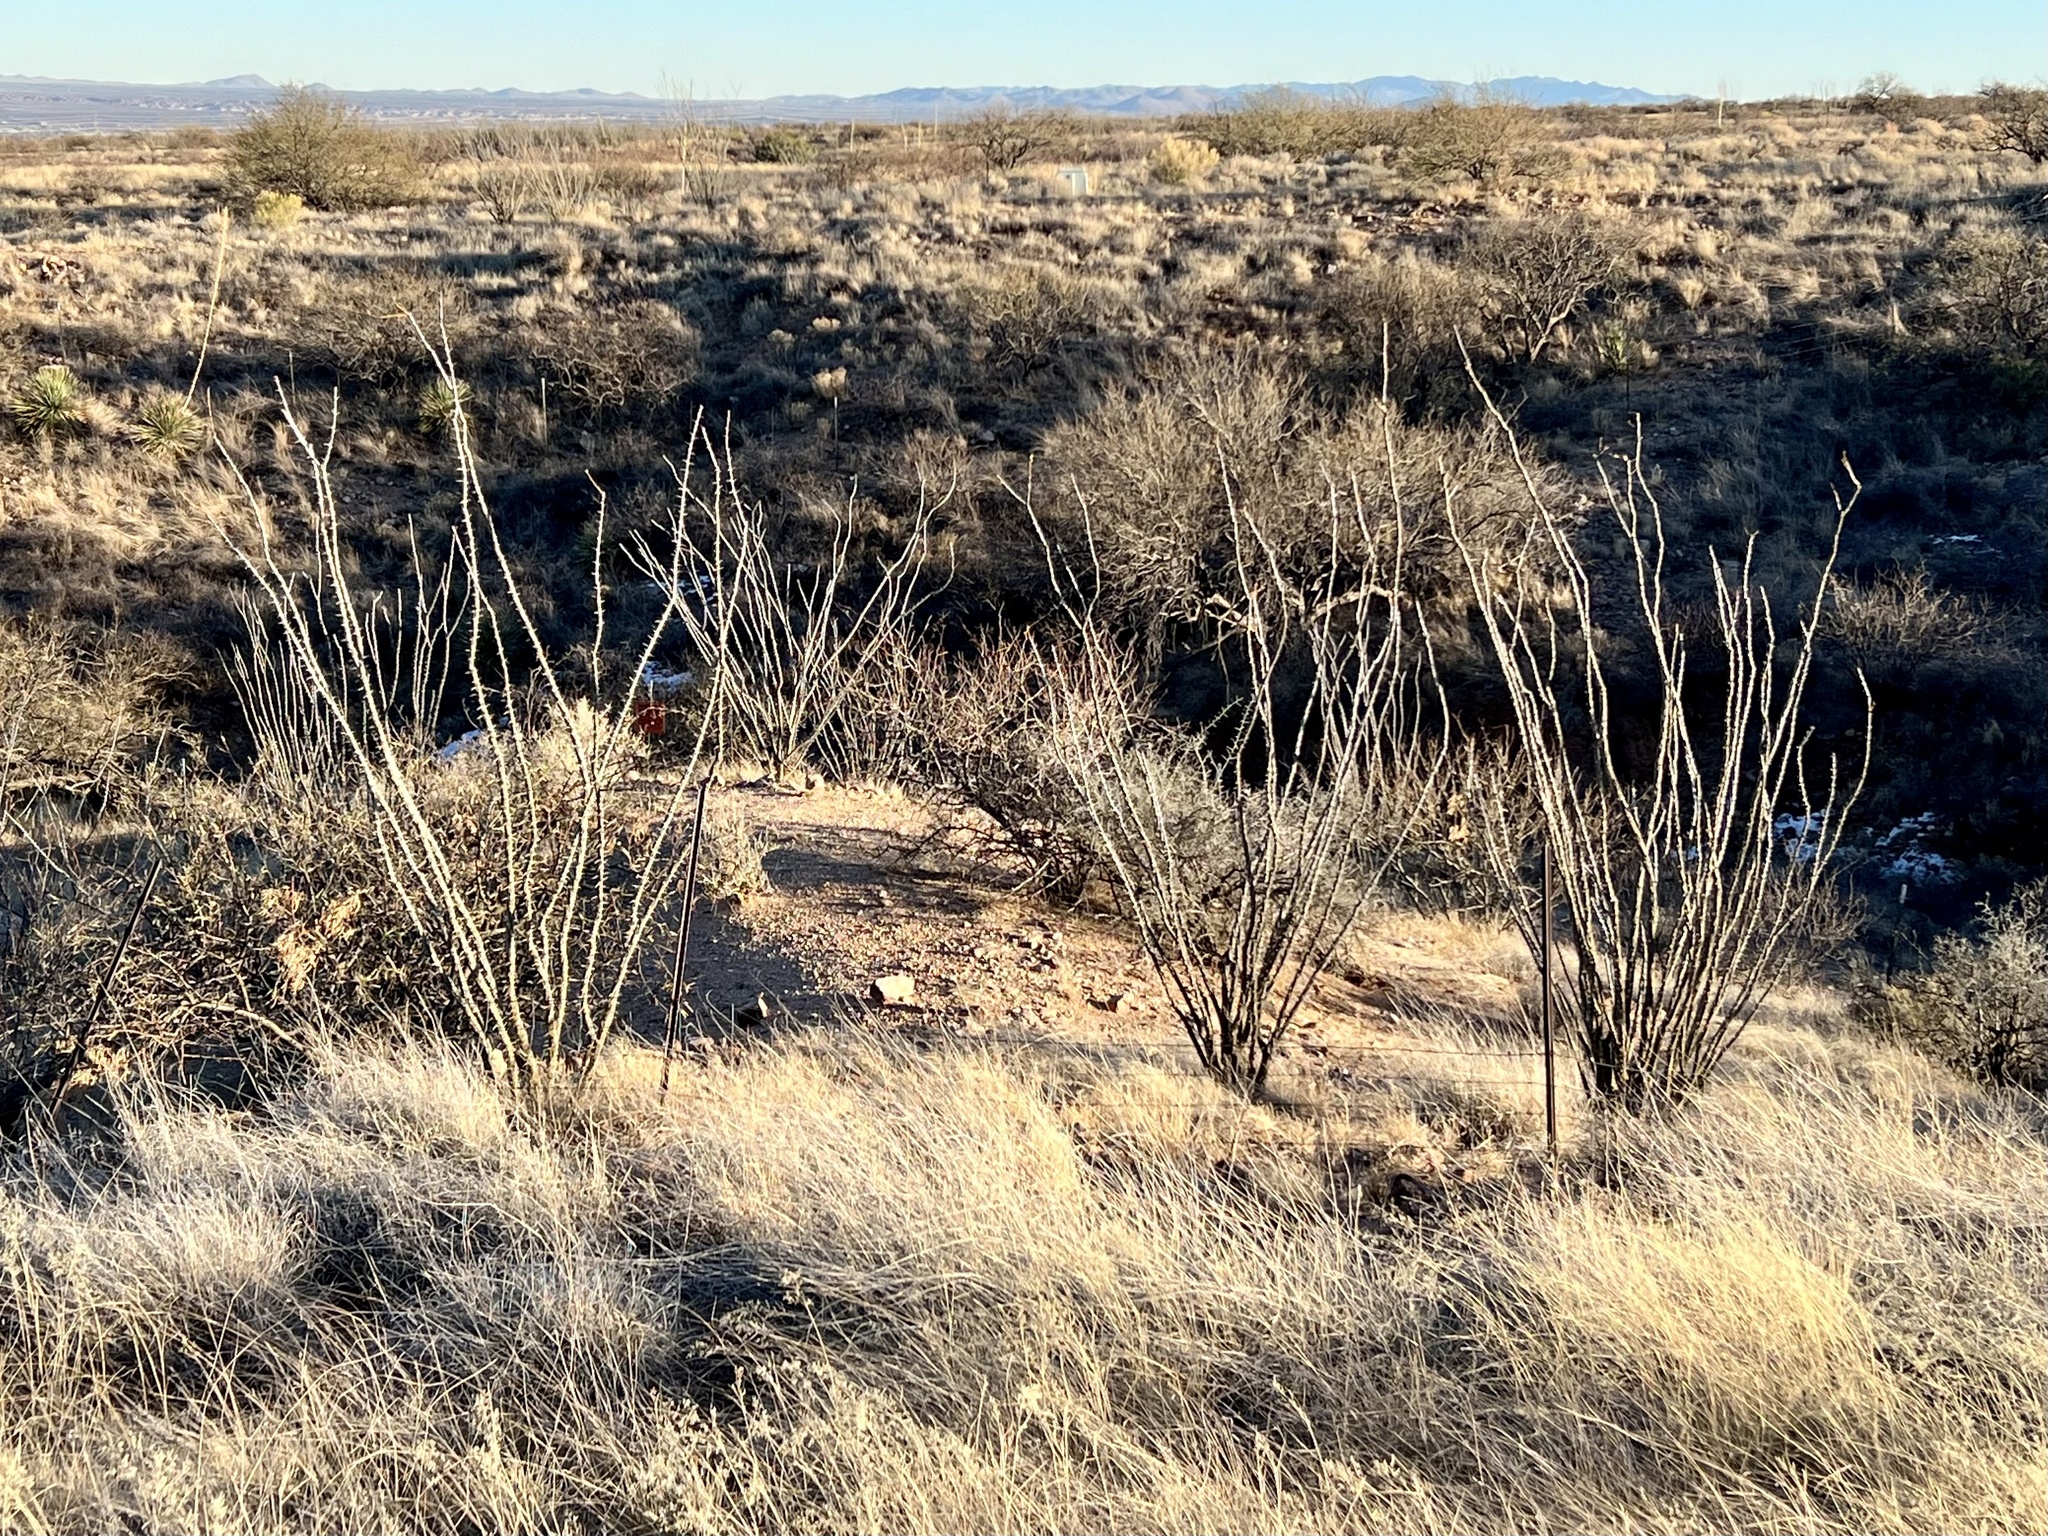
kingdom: Plantae
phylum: Tracheophyta
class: Magnoliopsida
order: Ericales
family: Fouquieriaceae
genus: Fouquieria
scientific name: Fouquieria splendens
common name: Vine-cactus
